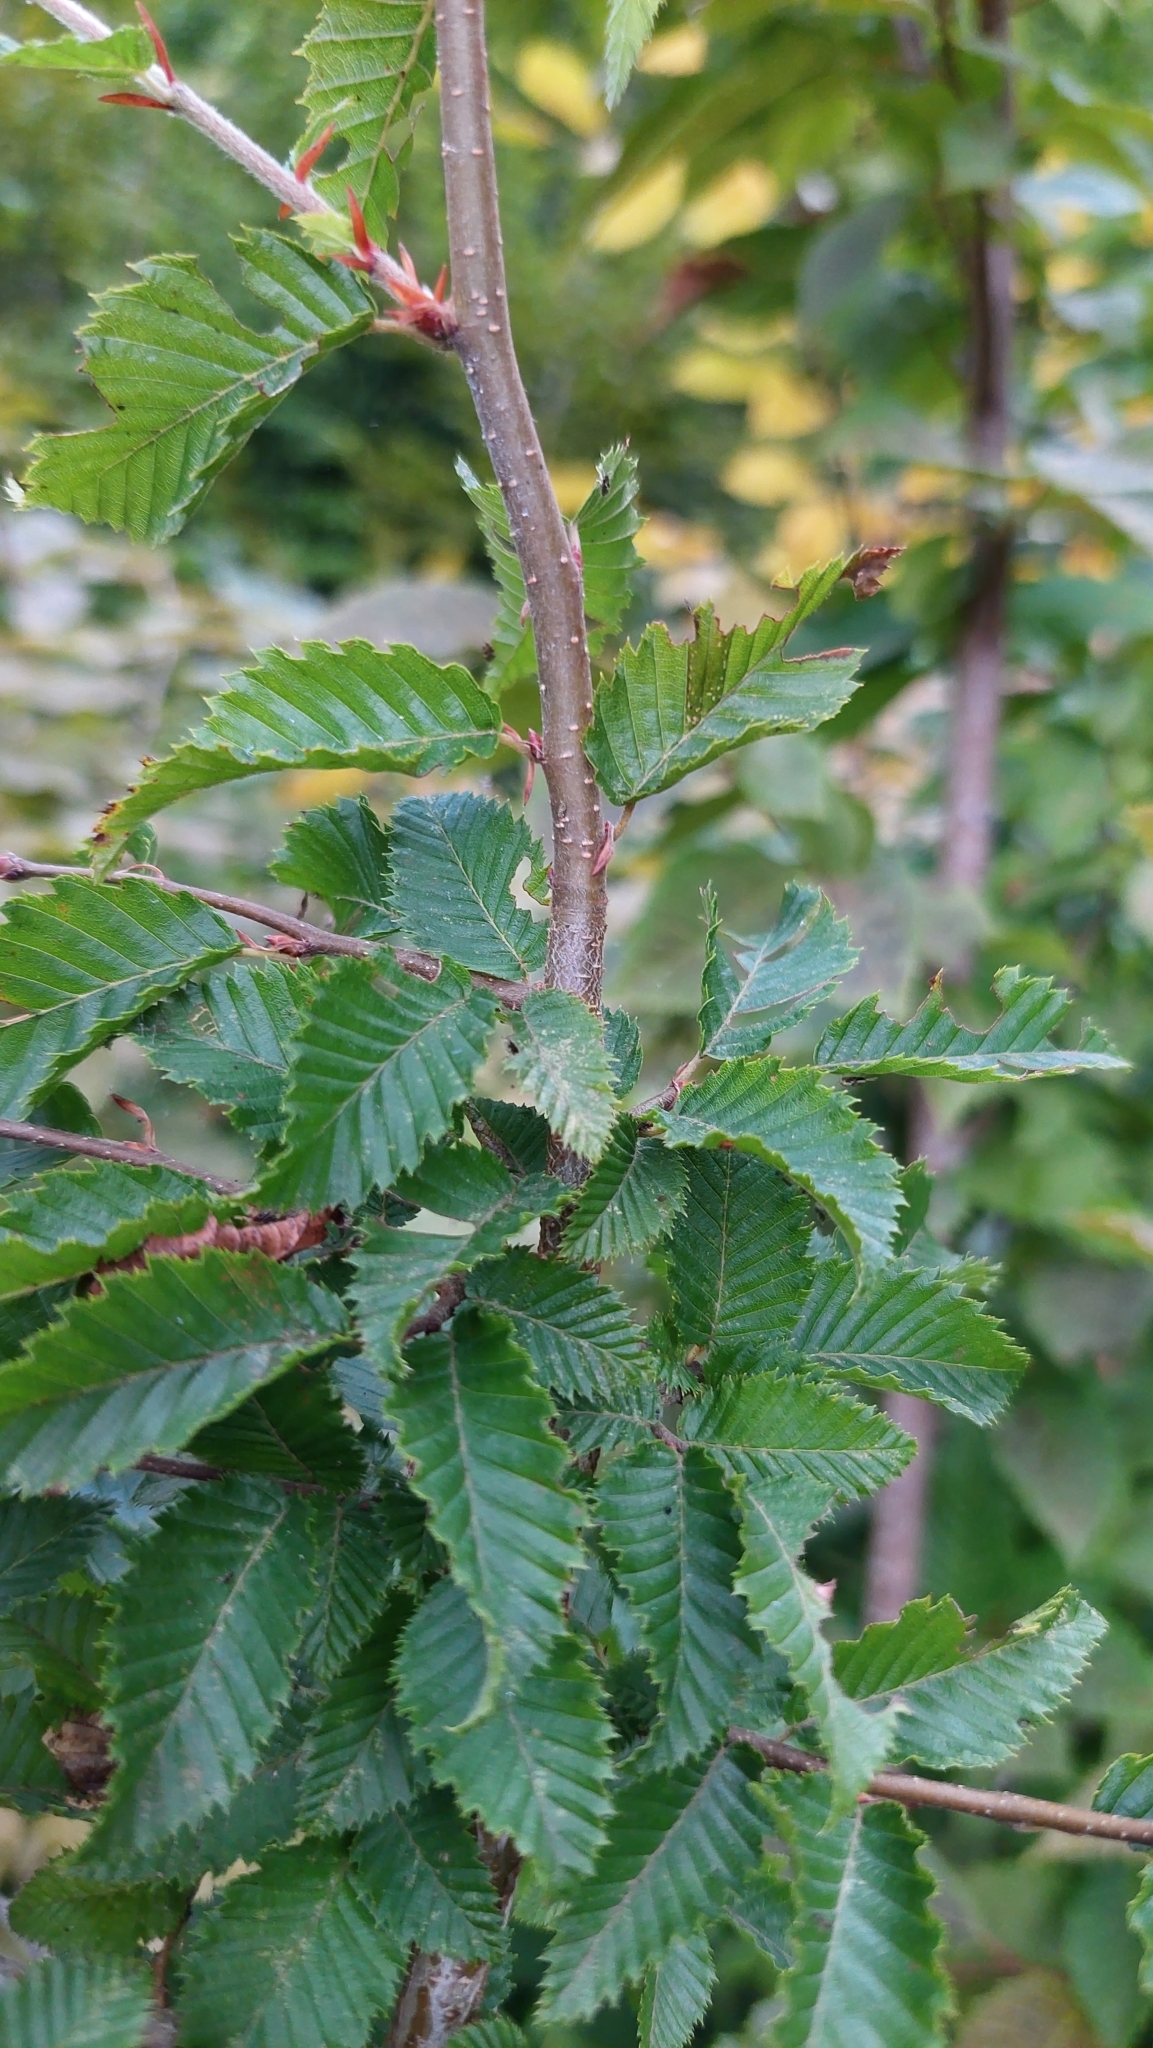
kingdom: Plantae
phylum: Tracheophyta
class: Magnoliopsida
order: Fagales
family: Betulaceae
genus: Carpinus
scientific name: Carpinus orientalis
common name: Eastern hornbeam
